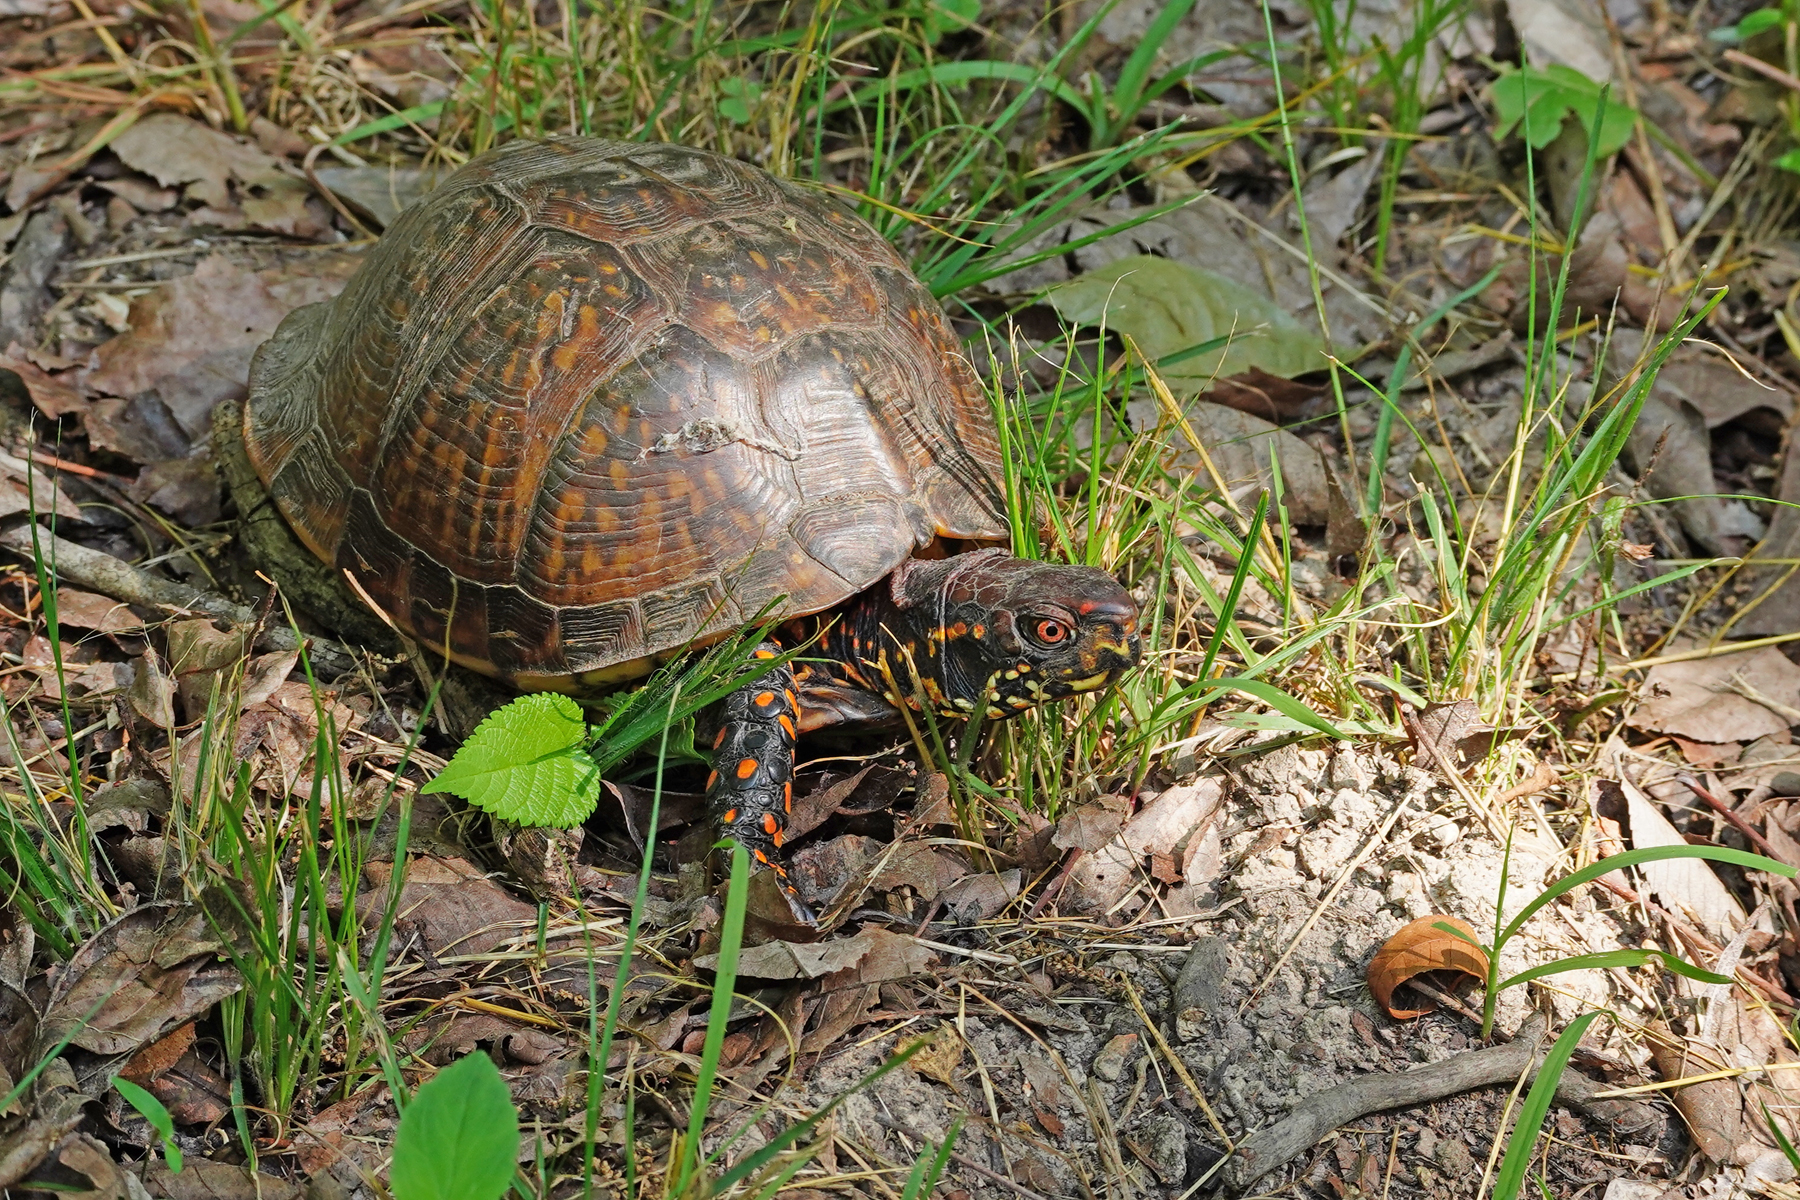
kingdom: Animalia
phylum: Chordata
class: Testudines
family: Emydidae
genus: Terrapene
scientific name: Terrapene carolina
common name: Common box turtle
